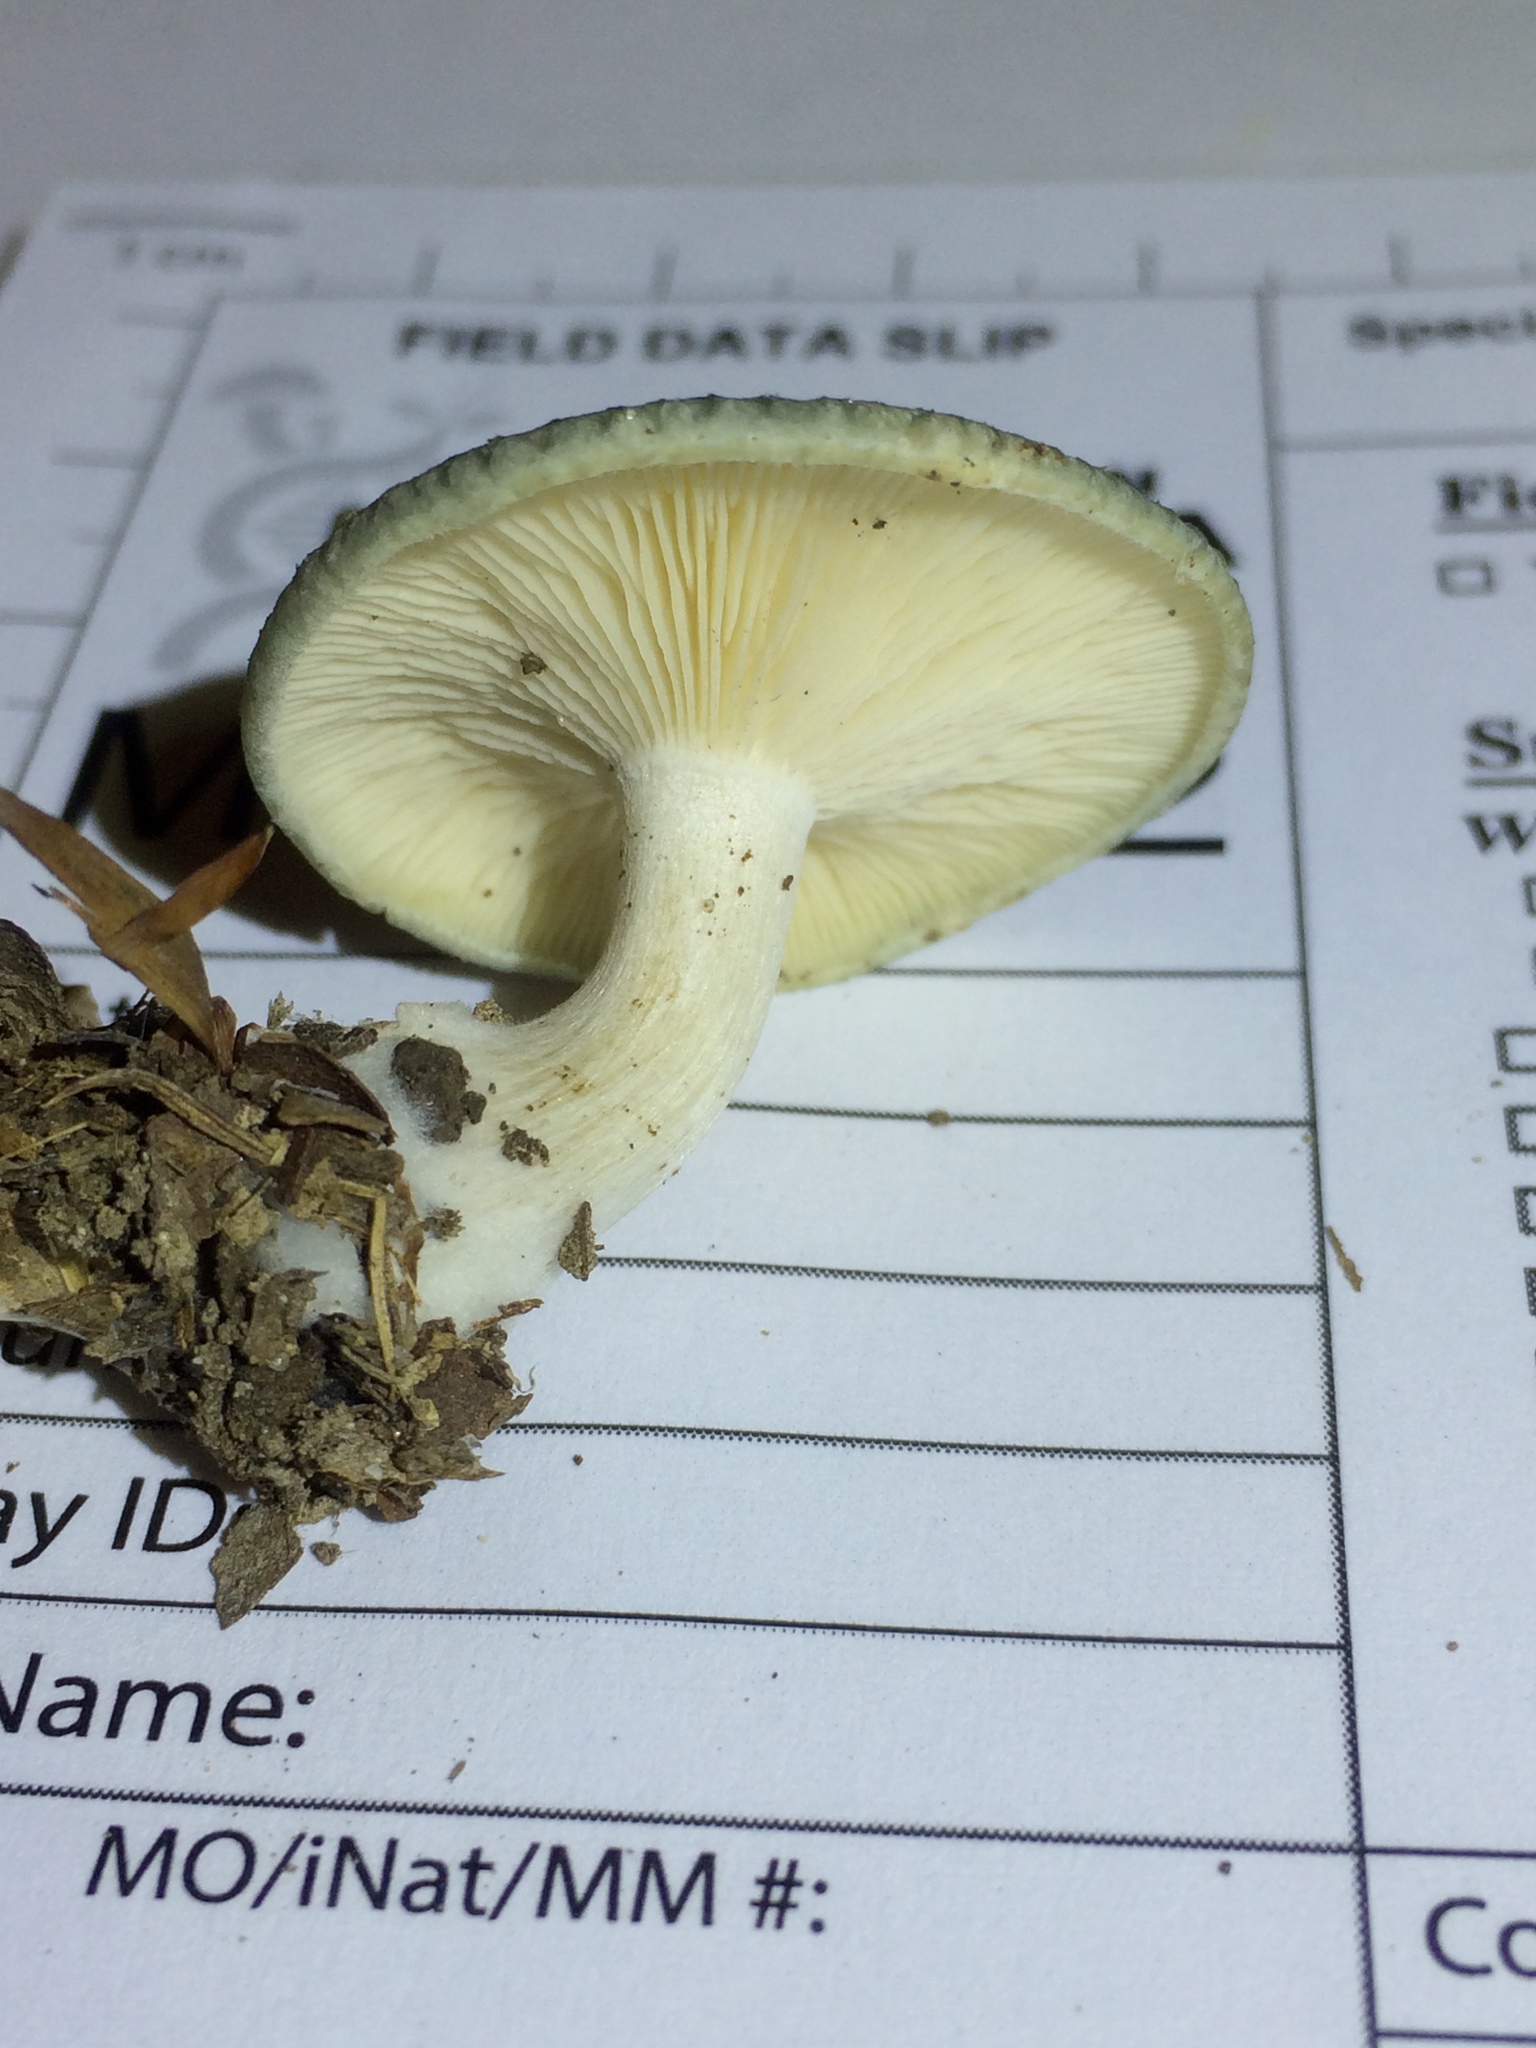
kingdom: Fungi
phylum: Basidiomycota
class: Agaricomycetes
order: Agaricales
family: Tricholomataceae
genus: Collybia
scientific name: Collybia
